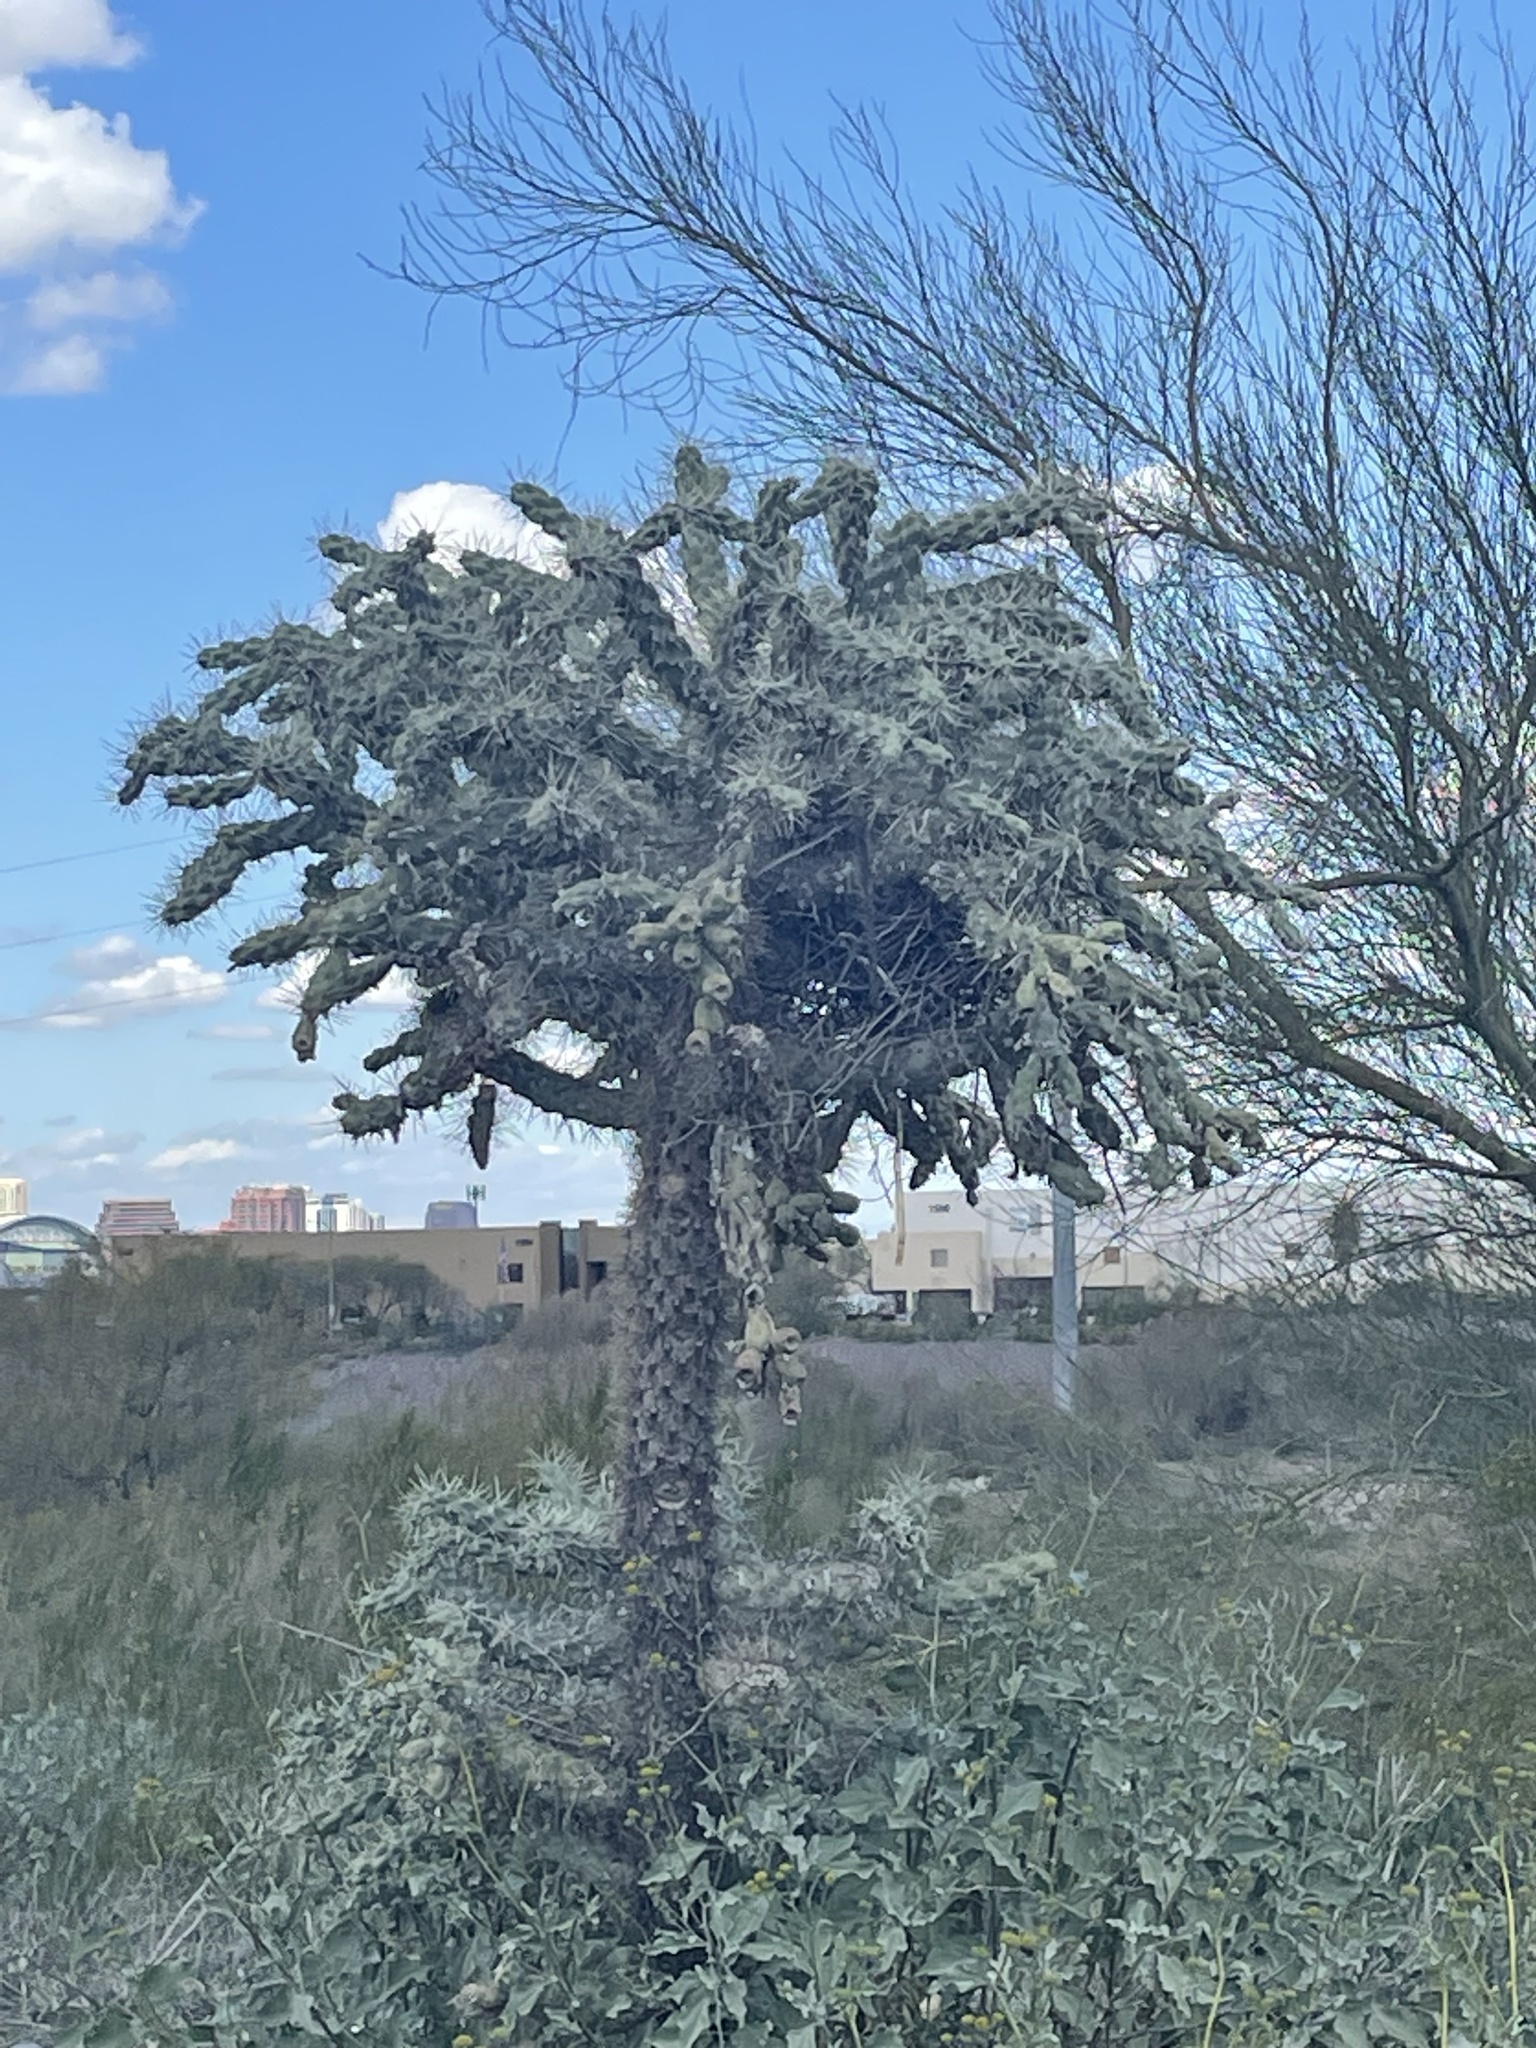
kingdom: Plantae
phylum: Tracheophyta
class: Magnoliopsida
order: Caryophyllales
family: Cactaceae
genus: Cylindropuntia
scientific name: Cylindropuntia fulgida
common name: Jumping cholla
